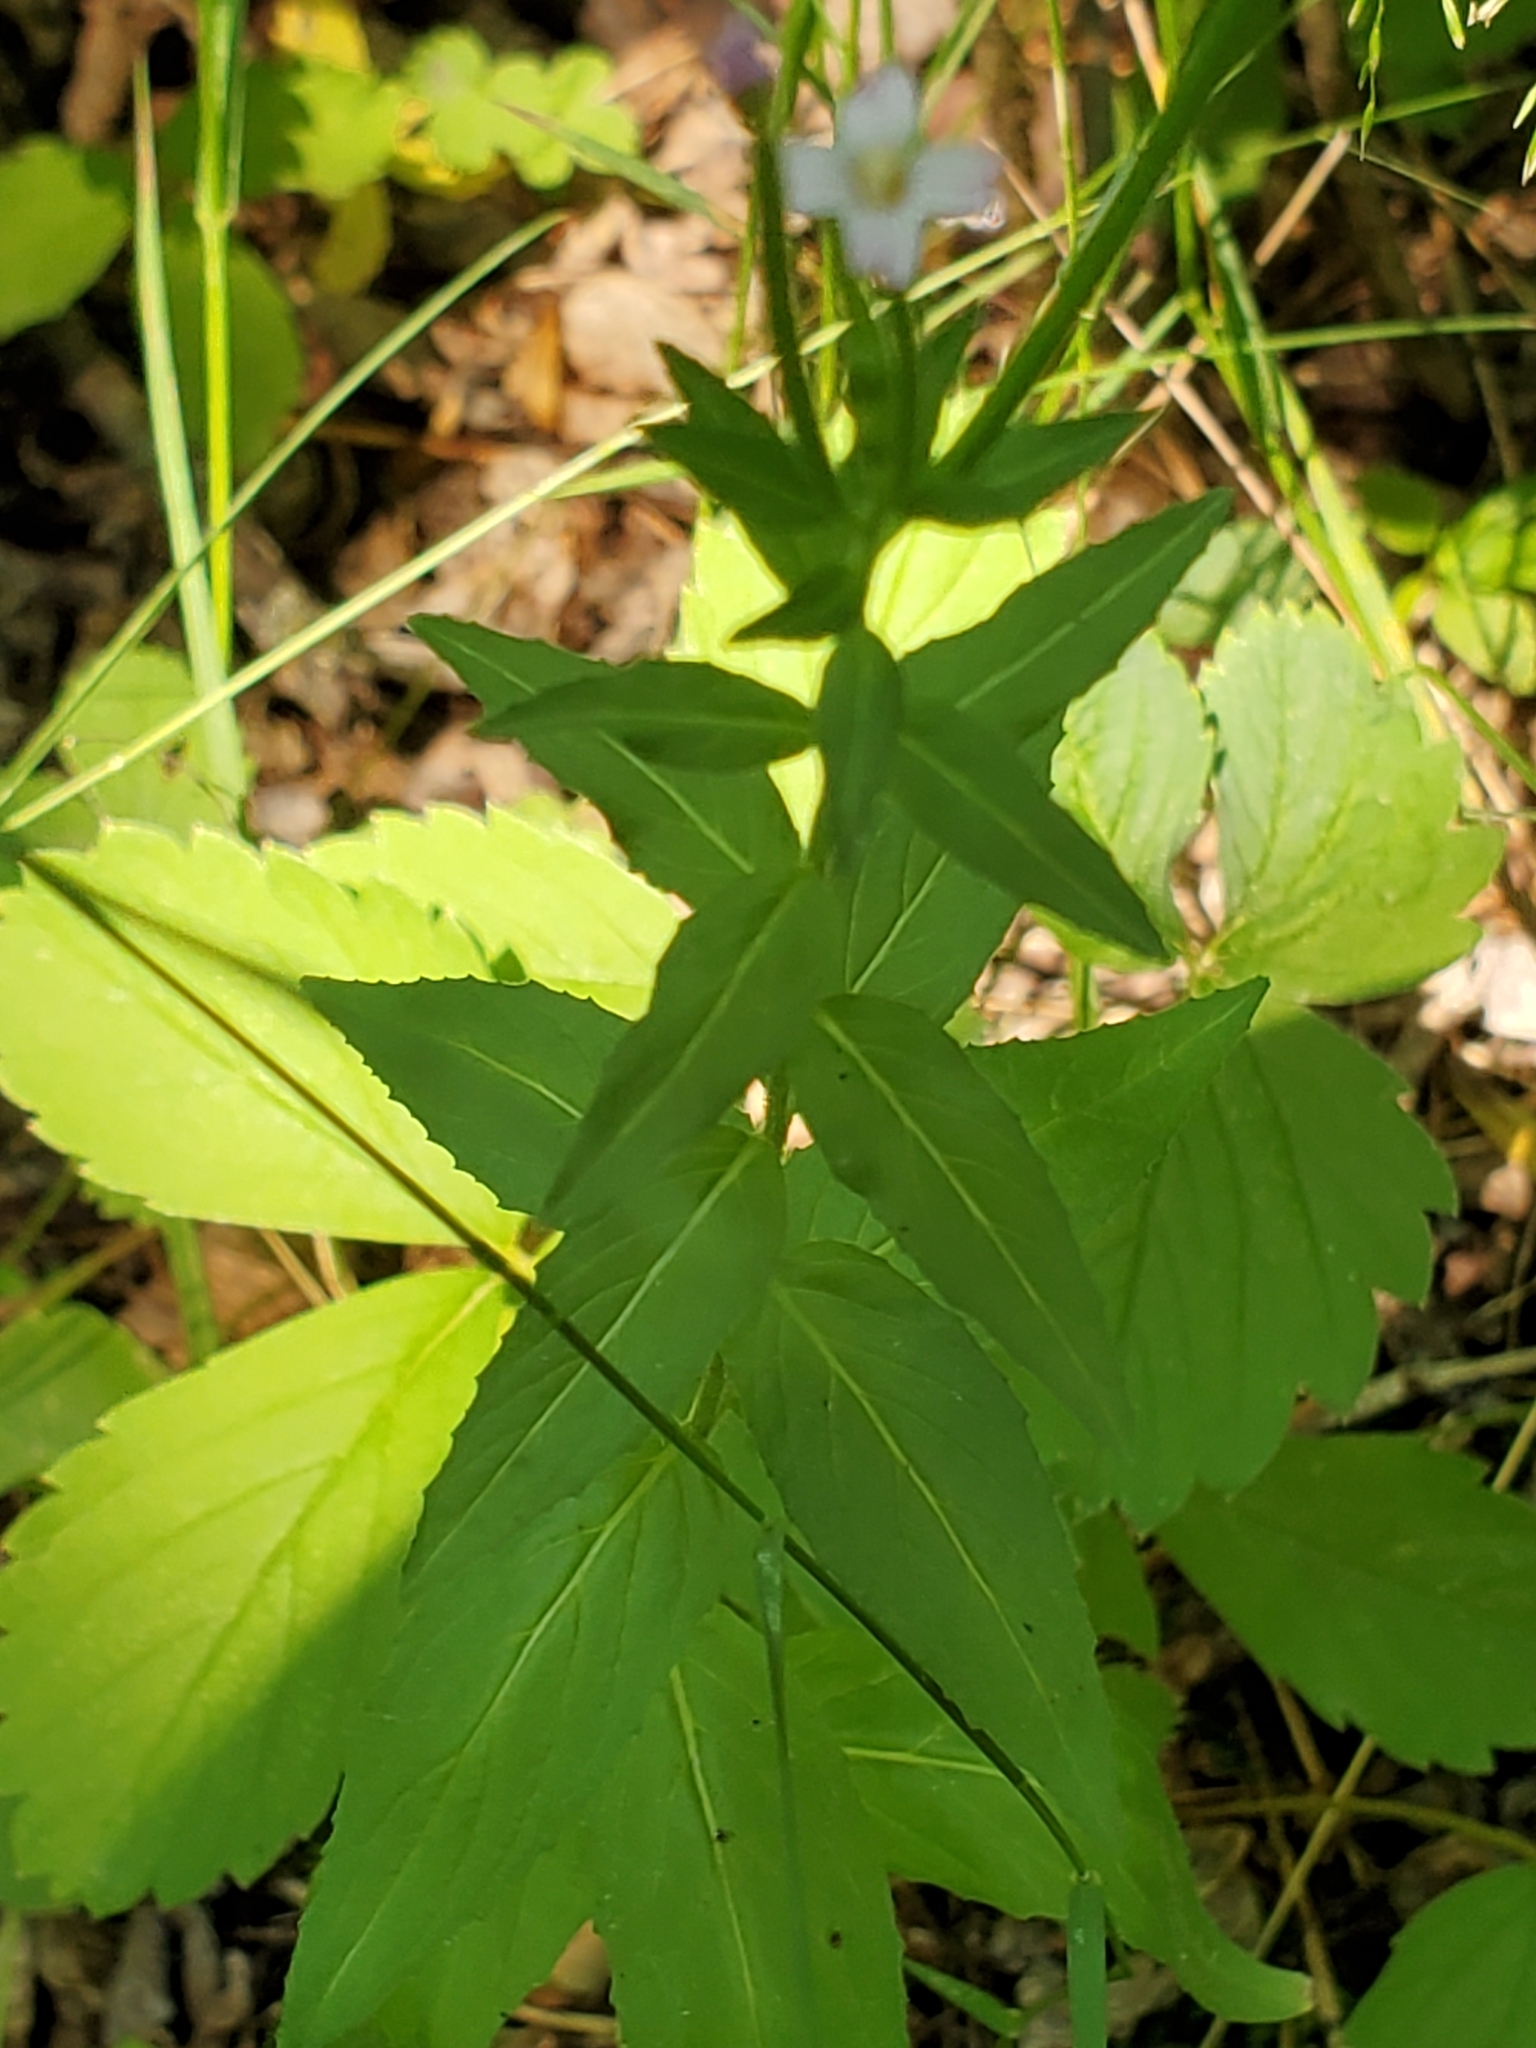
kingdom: Plantae
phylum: Tracheophyta
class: Magnoliopsida
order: Myrtales
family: Onagraceae
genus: Epilobium
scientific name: Epilobium ciliatum
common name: American willowherb
